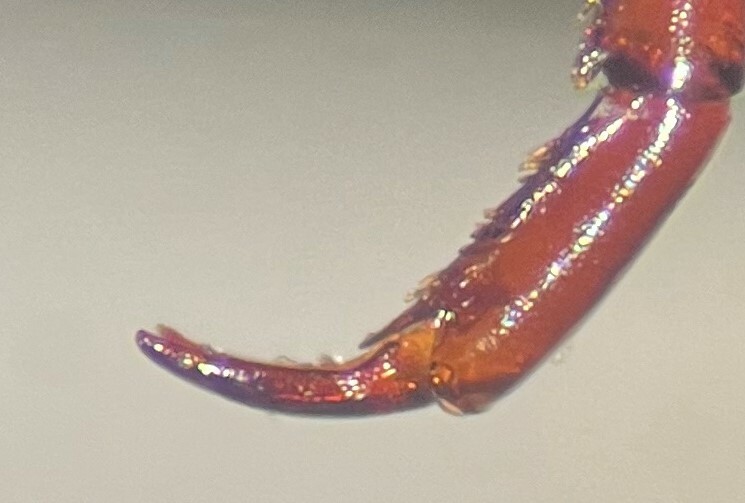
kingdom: Animalia
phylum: Arthropoda
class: Insecta
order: Coleoptera
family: Dytiscidae
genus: Ilybiosoma
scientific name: Ilybiosoma regulare
